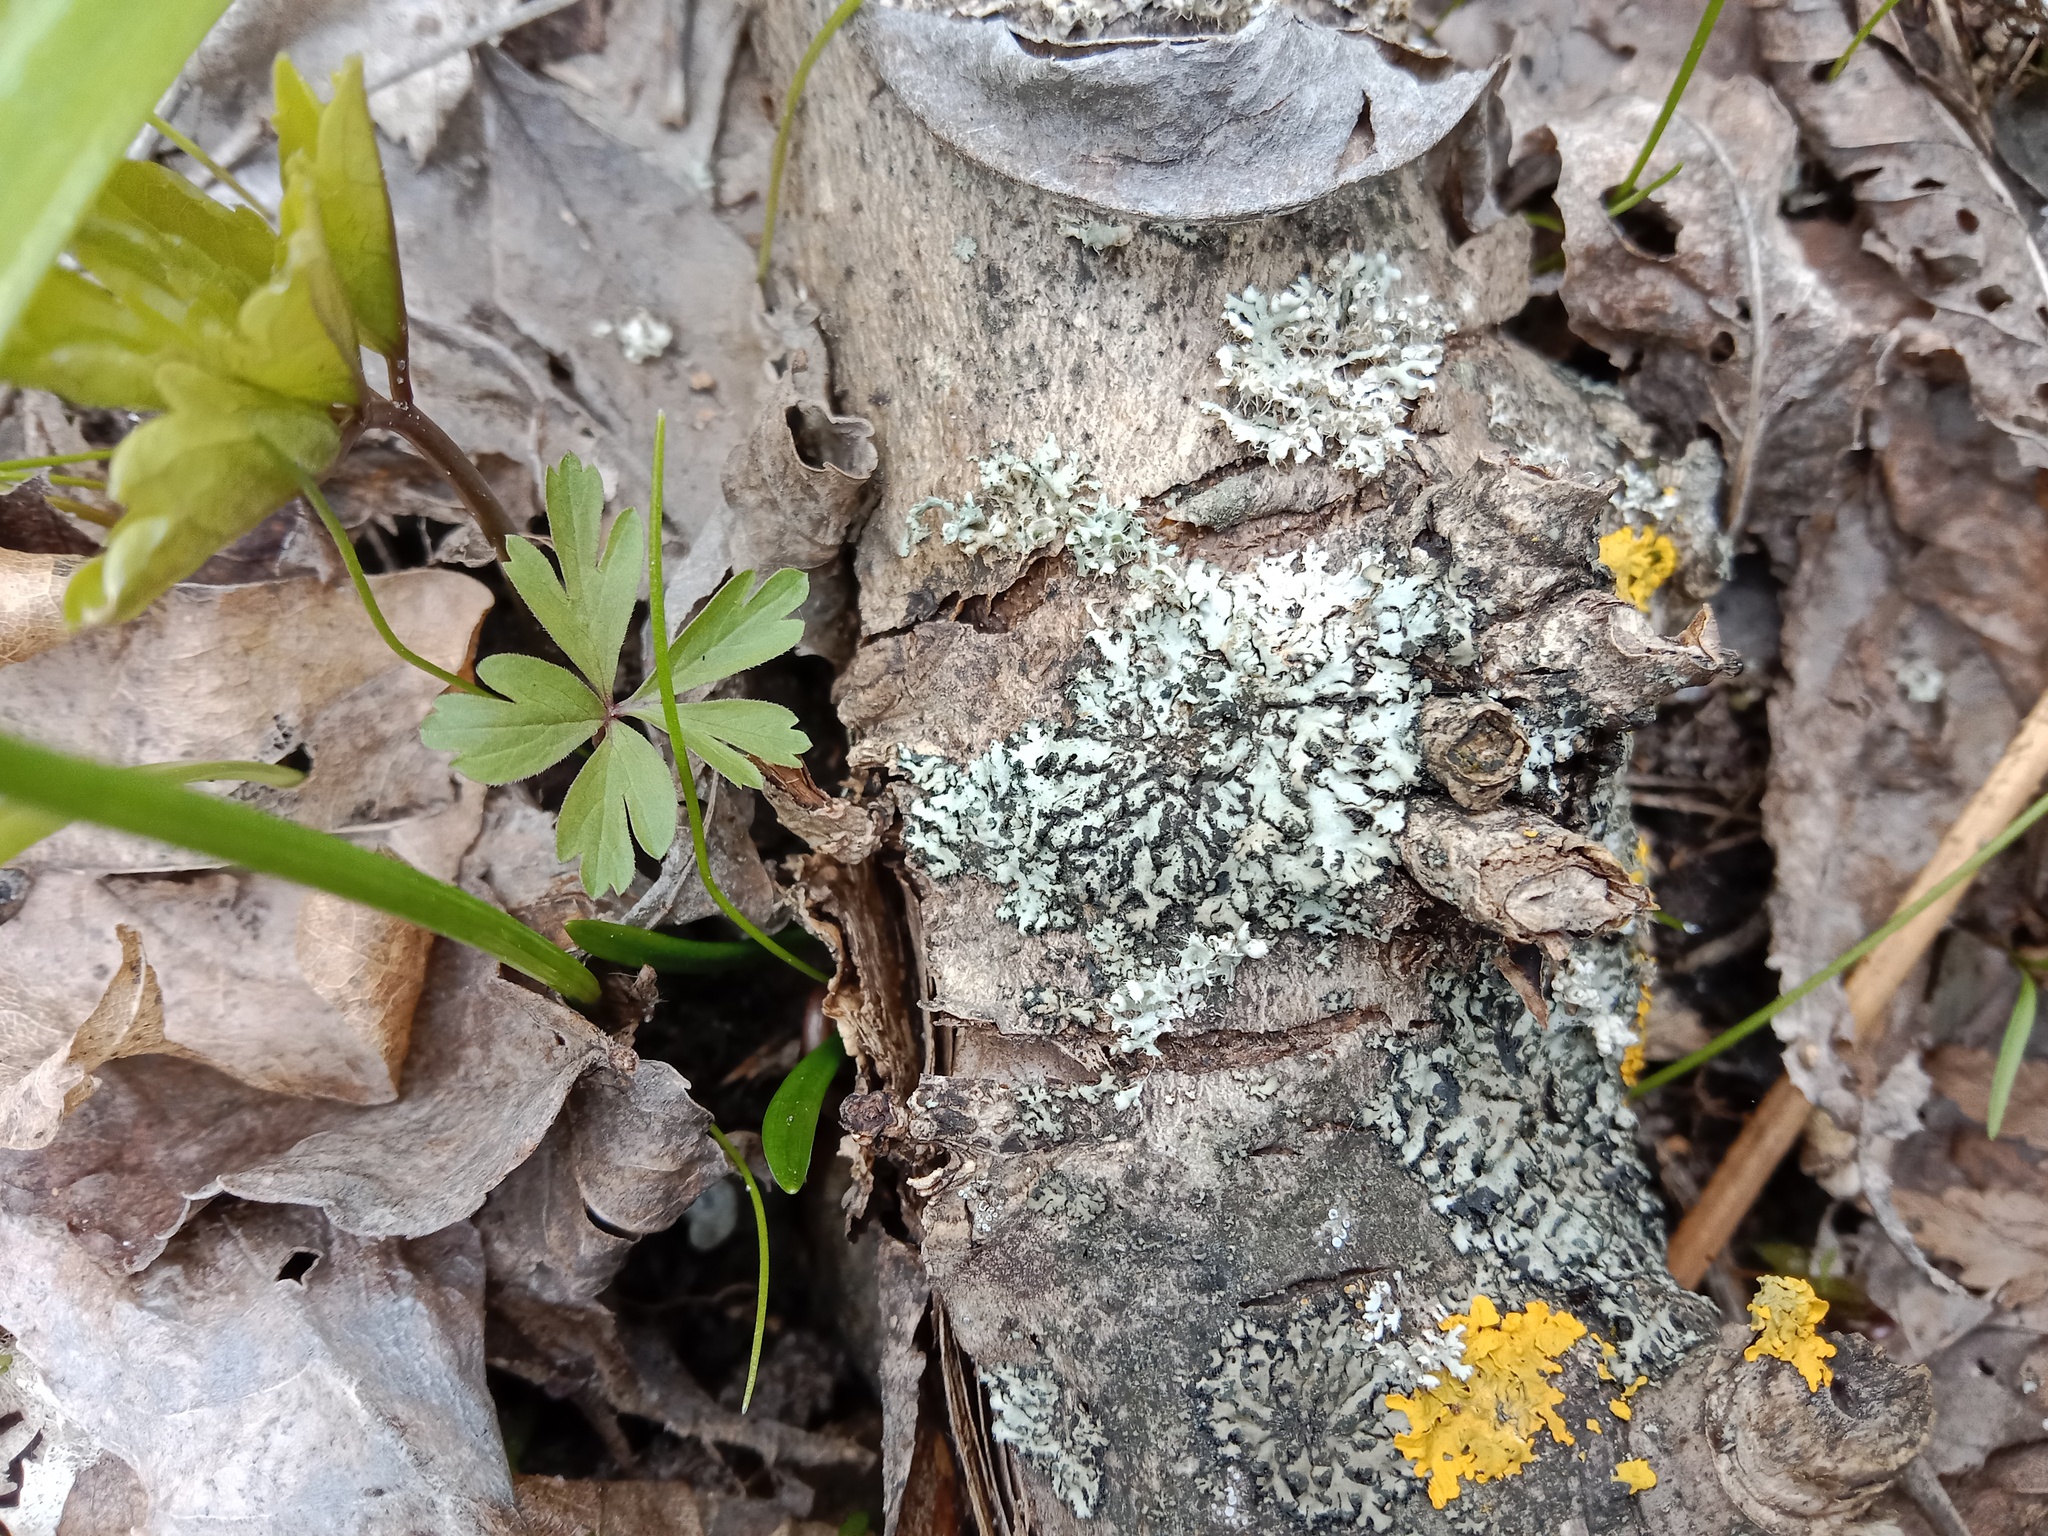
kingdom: Fungi
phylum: Ascomycota
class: Lecanoromycetes
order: Caliciales
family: Physciaceae
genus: Phaeophyscia
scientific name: Phaeophyscia orbicularis
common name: Mealy shadow lichen
